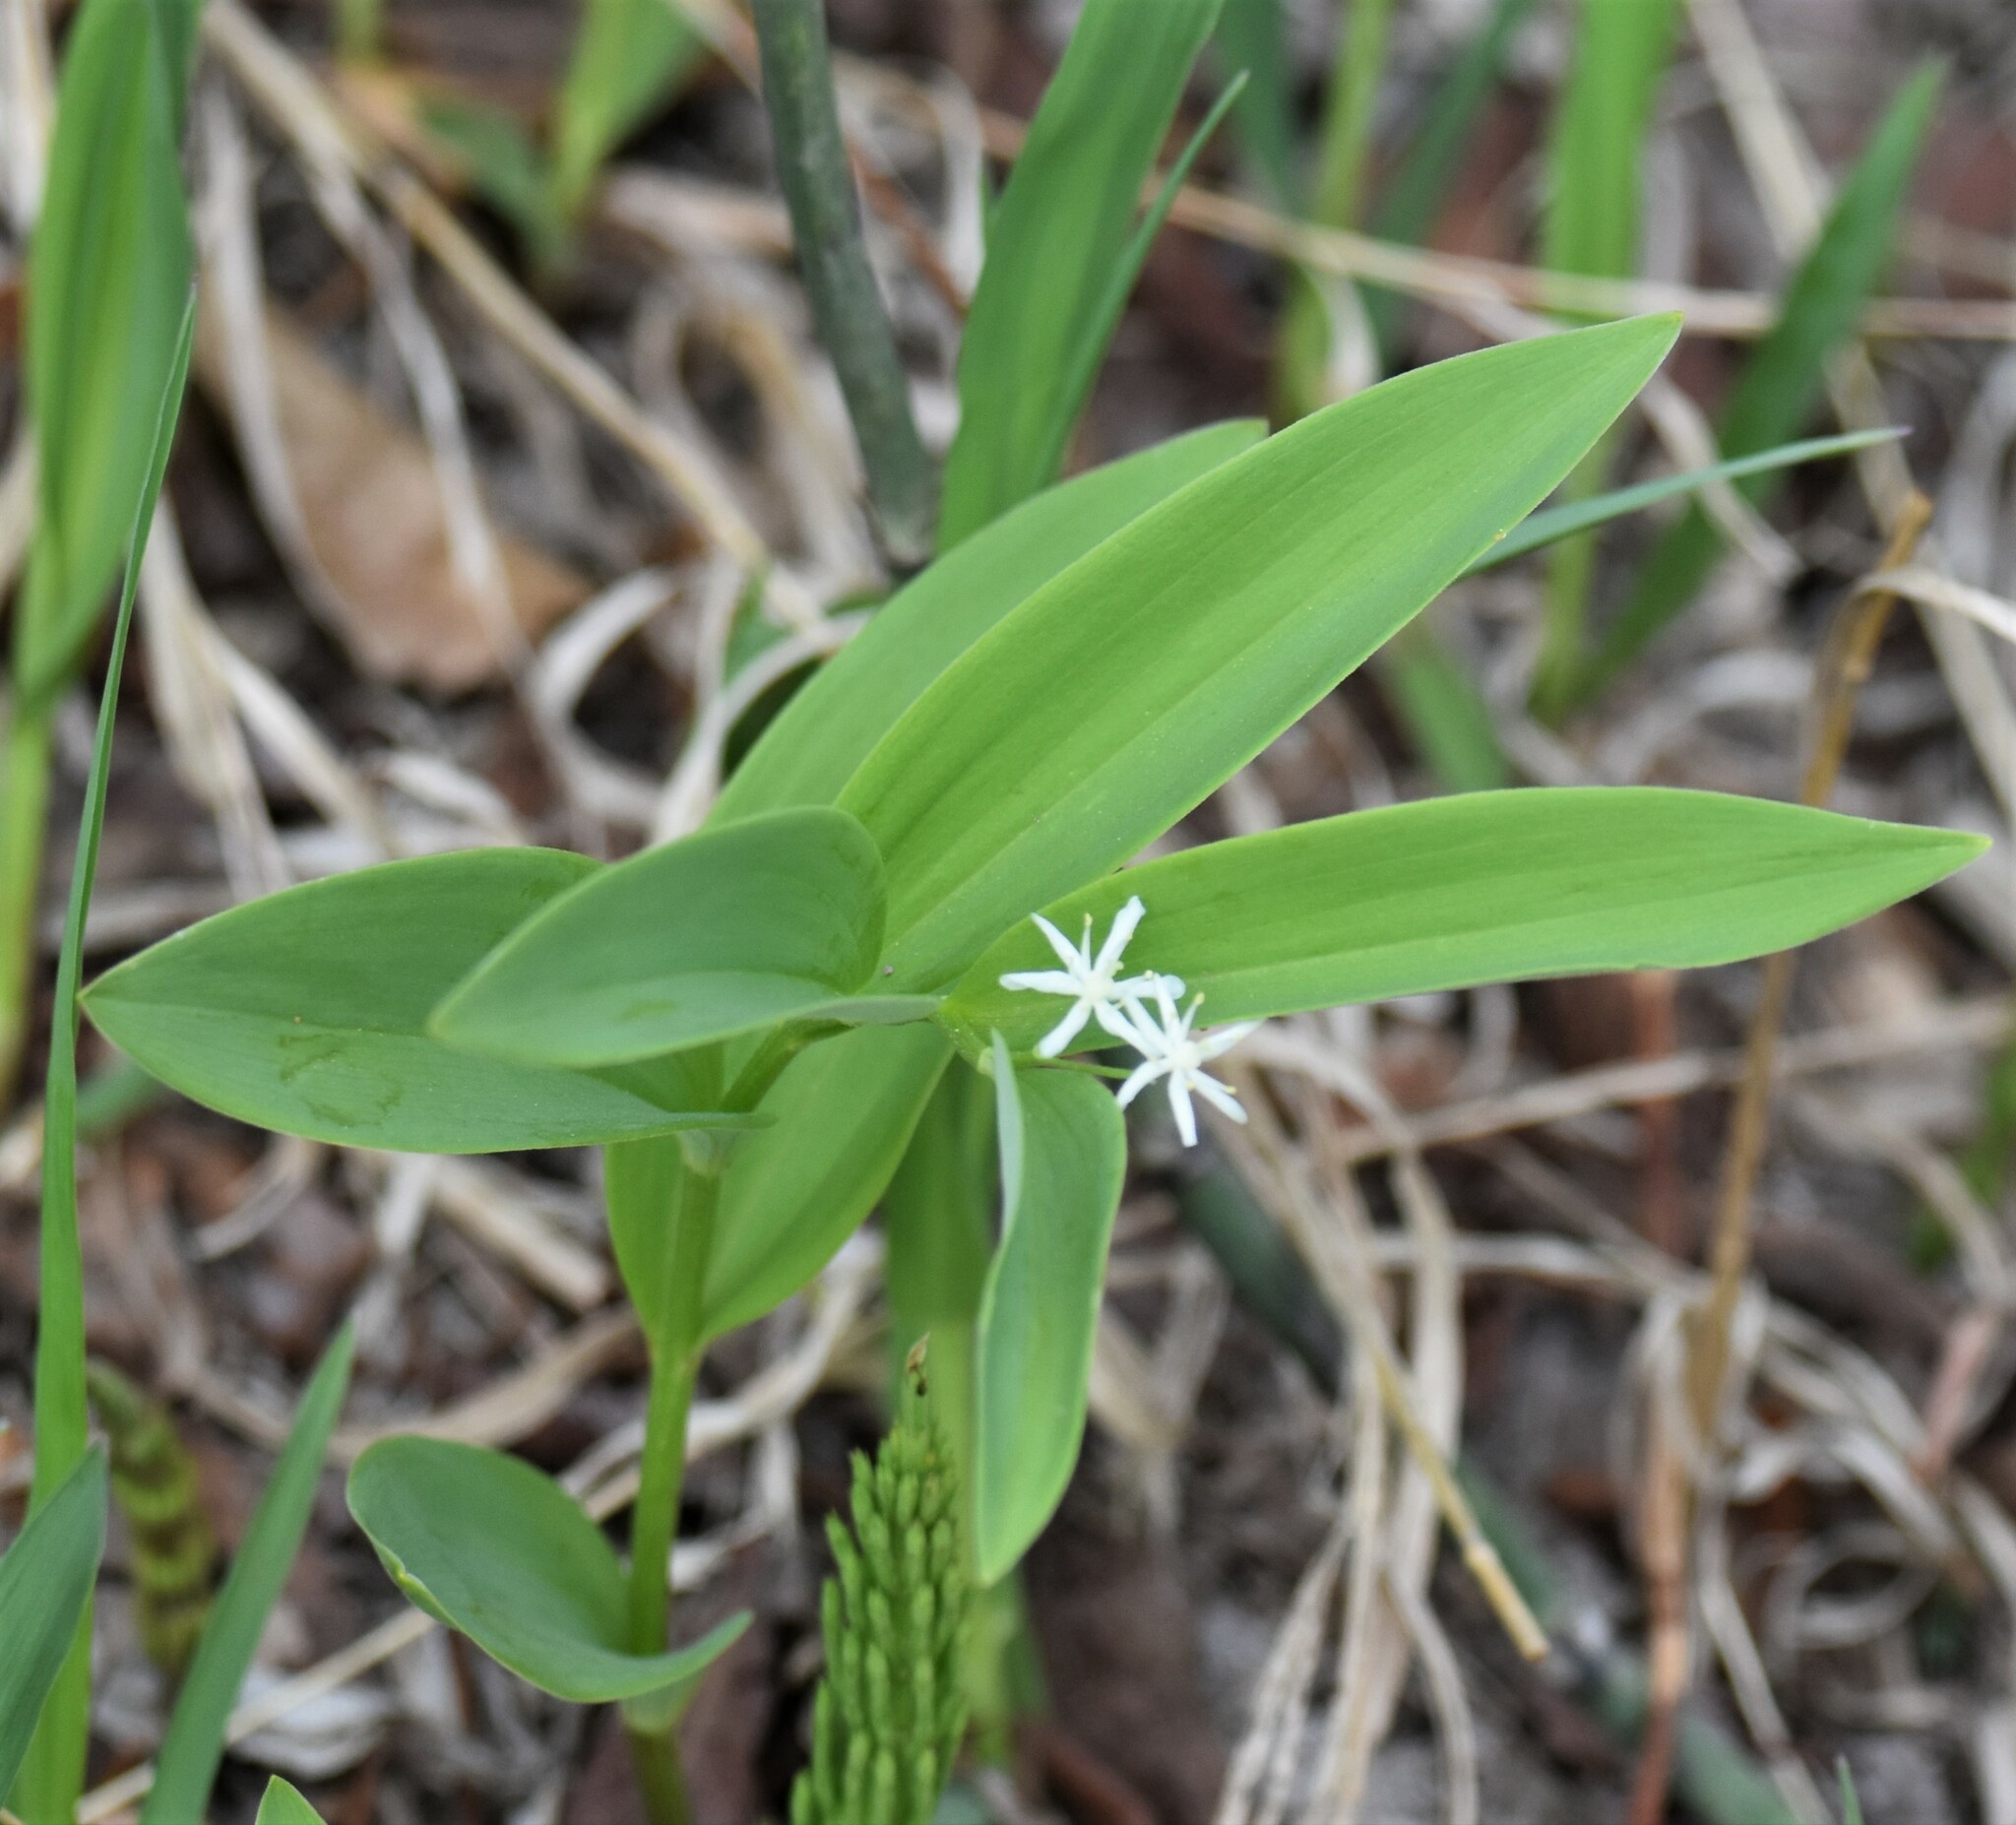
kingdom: Plantae
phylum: Tracheophyta
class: Liliopsida
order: Asparagales
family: Asparagaceae
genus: Maianthemum
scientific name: Maianthemum stellatum
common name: Little false solomon's seal
